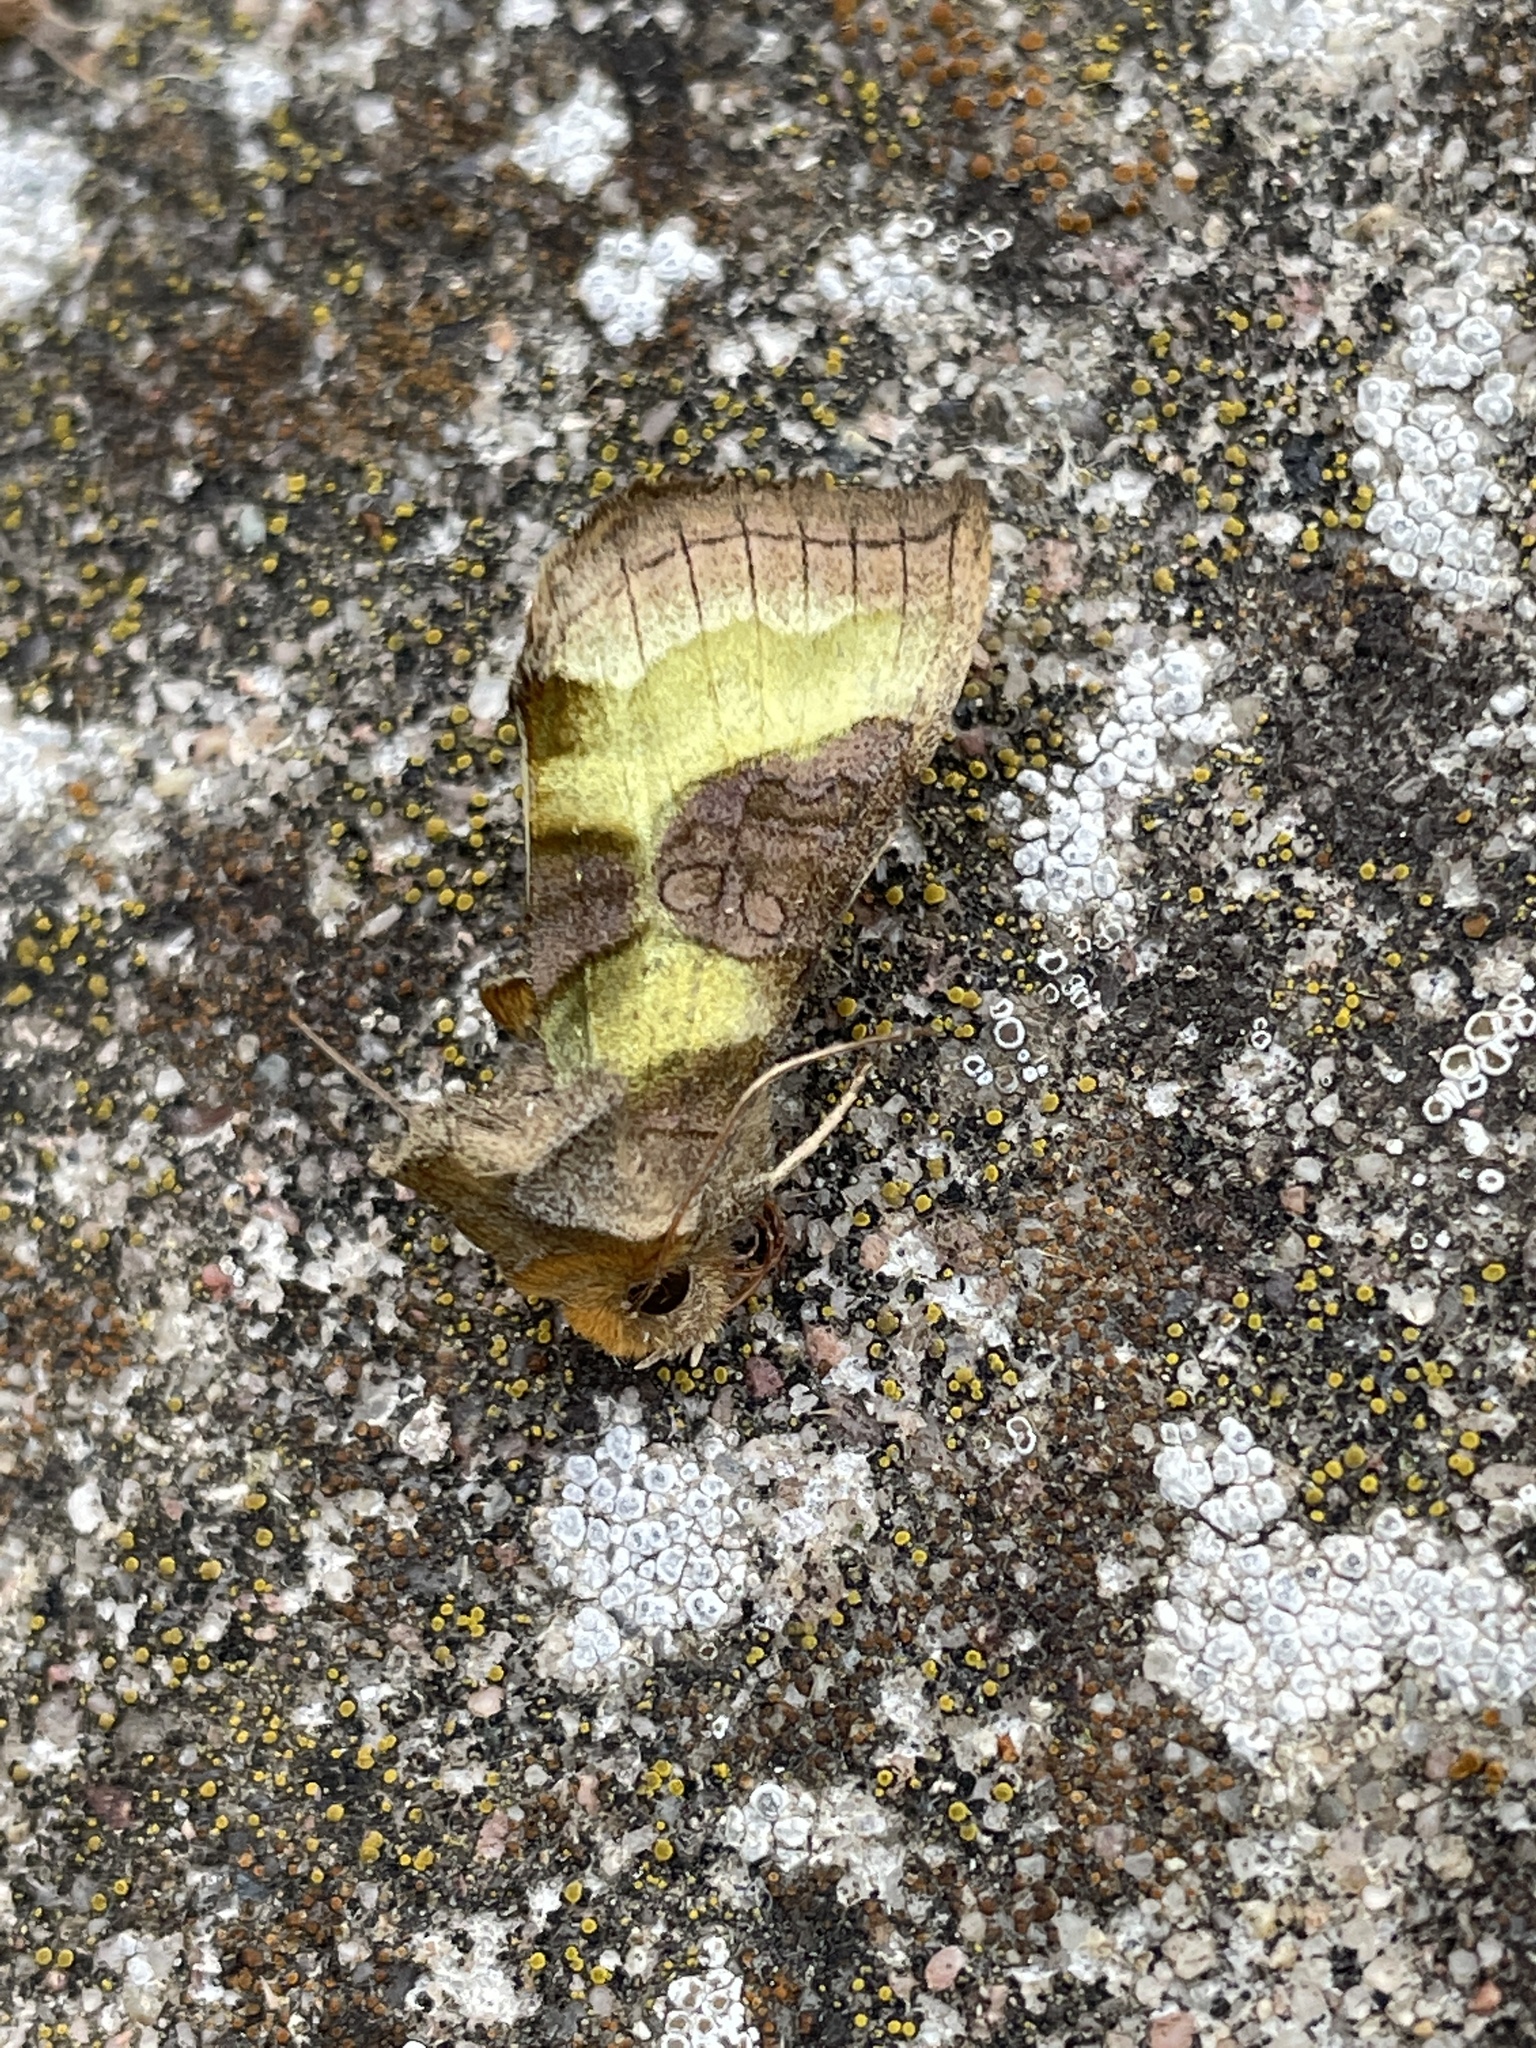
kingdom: Animalia
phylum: Arthropoda
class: Insecta
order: Lepidoptera
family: Noctuidae
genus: Diachrysia
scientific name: Diachrysia stenochrysis
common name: Cryptic burnished brass
